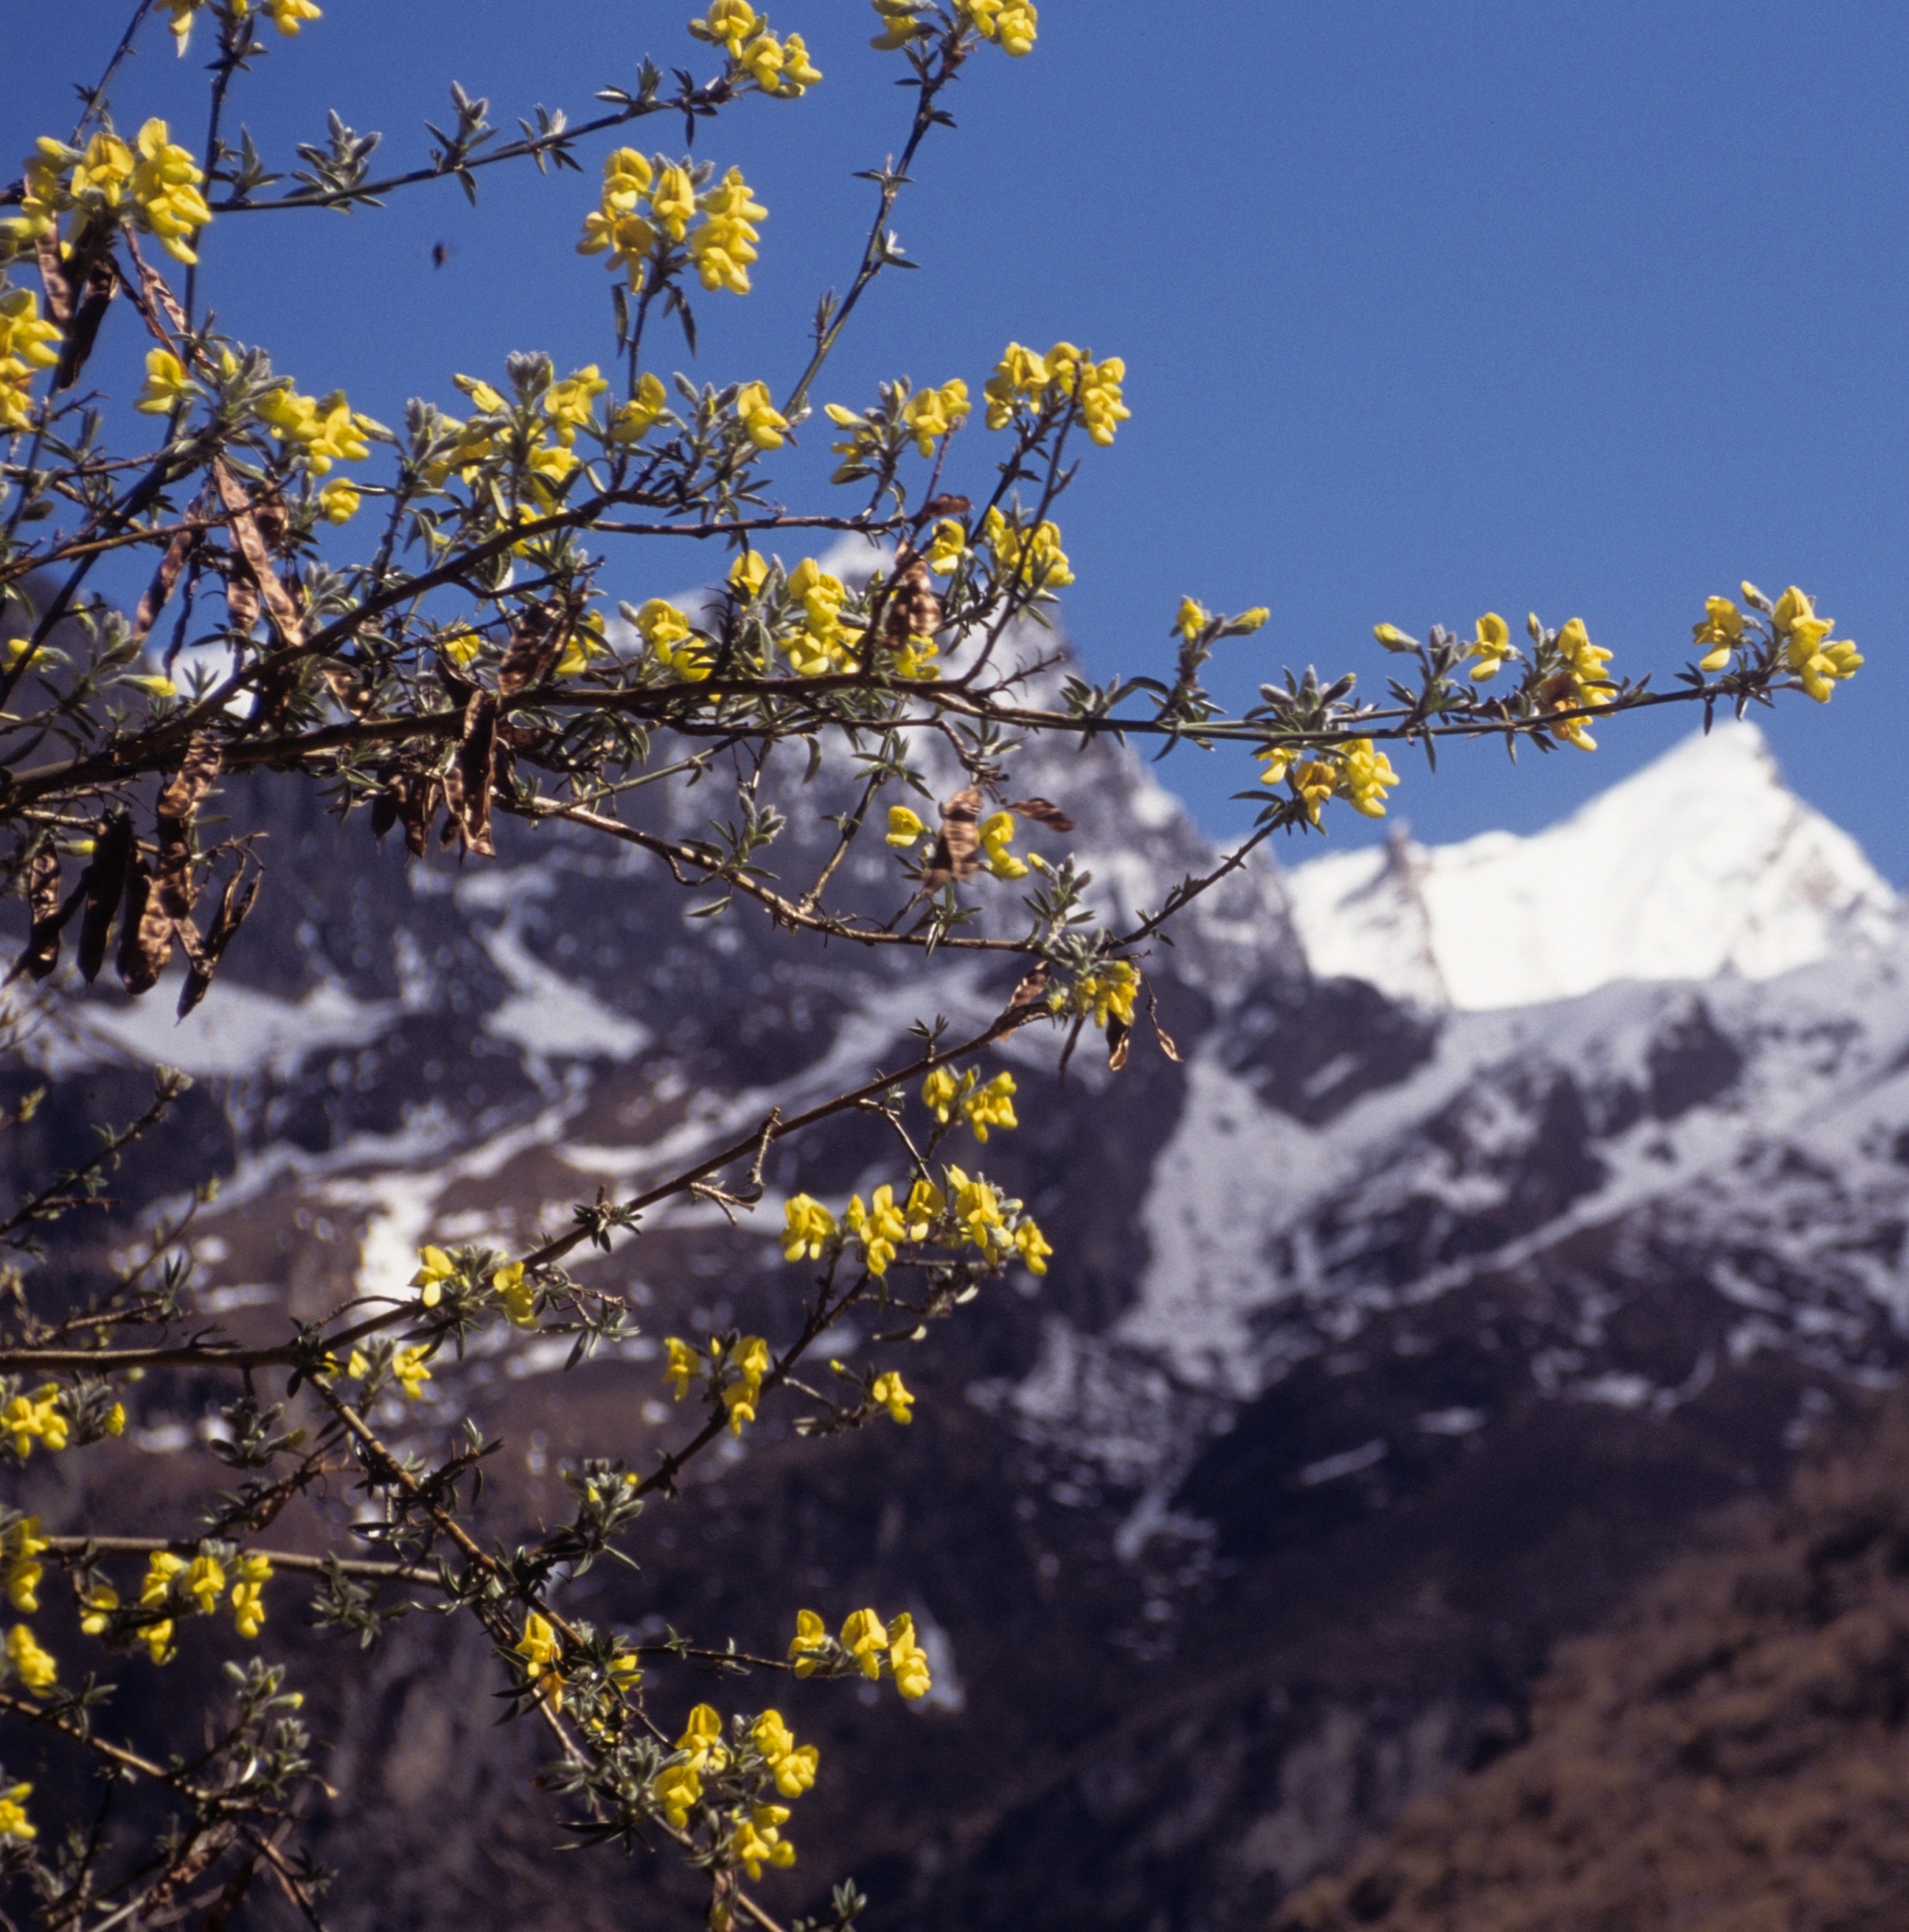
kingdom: Plantae
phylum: Tracheophyta
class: Magnoliopsida
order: Fabales
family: Fabaceae
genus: Piptanthus
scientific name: Piptanthus nepalensis
